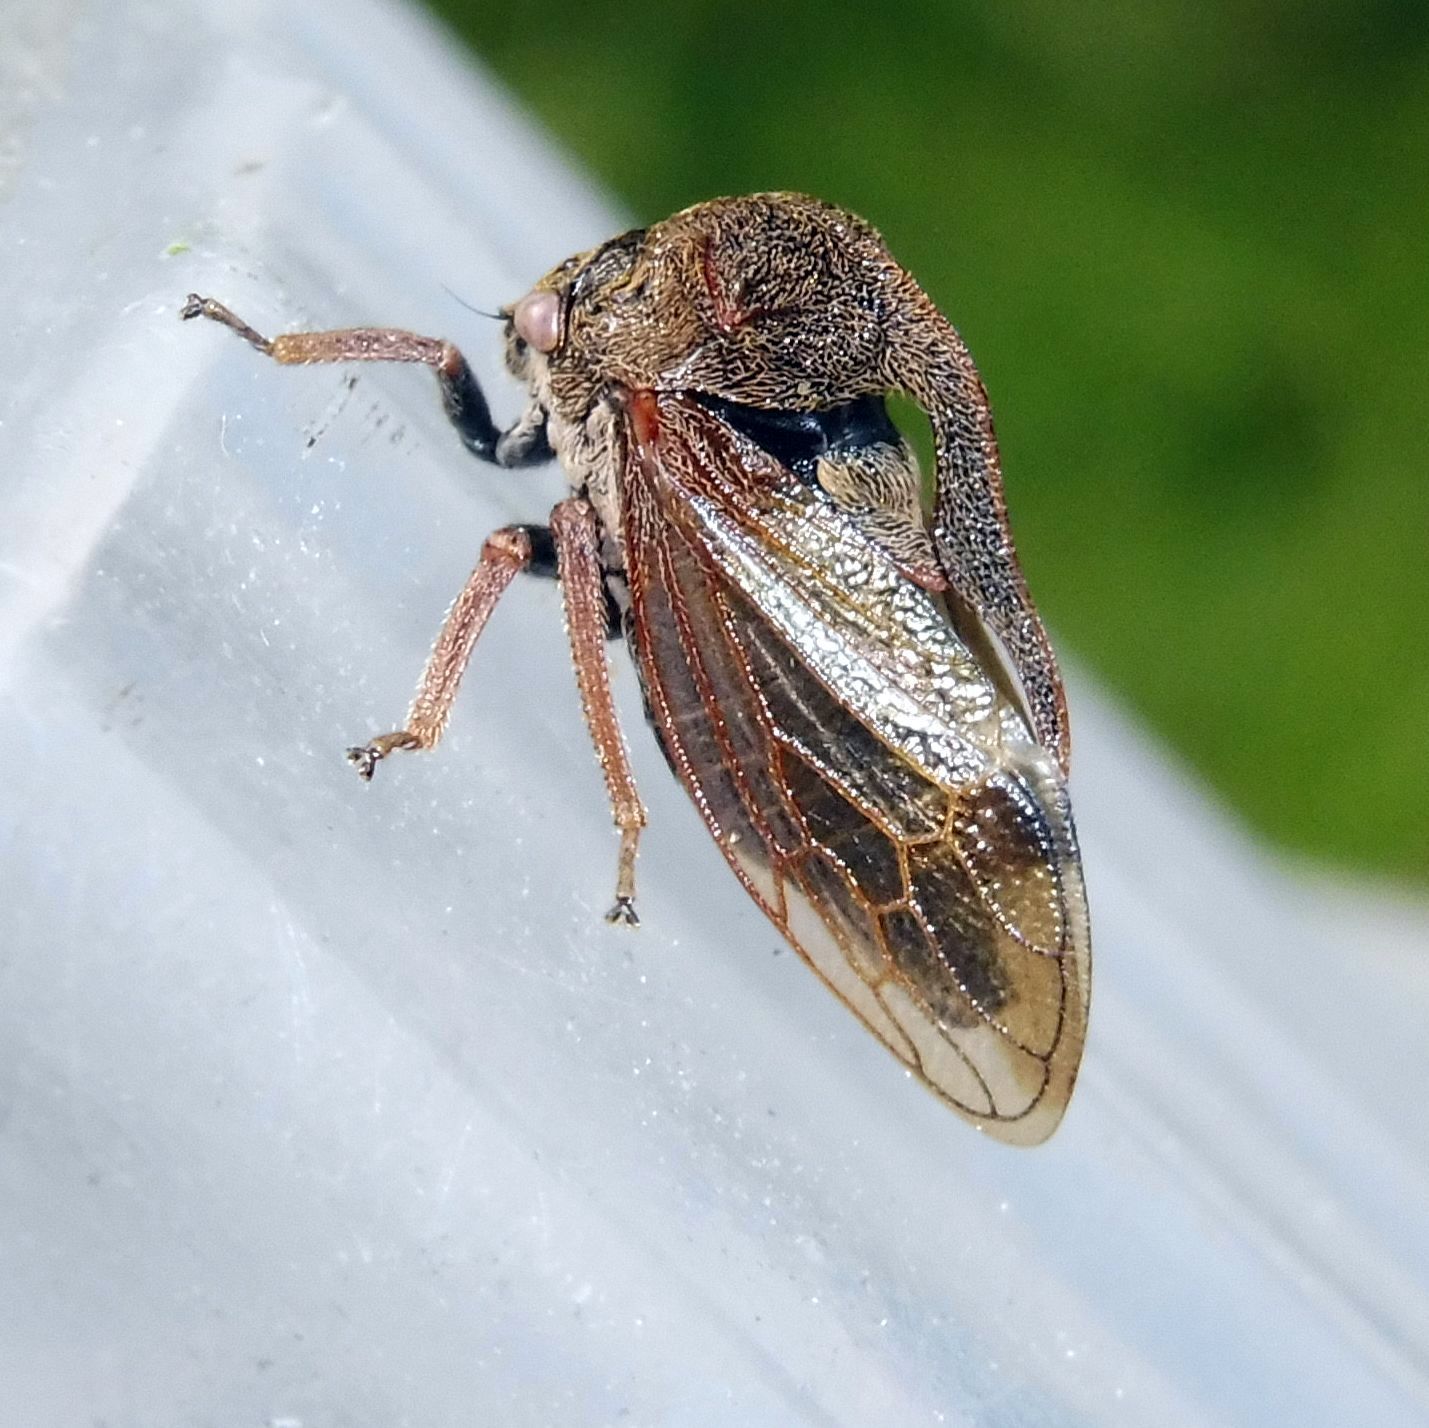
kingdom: Animalia
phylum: Arthropoda
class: Insecta
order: Hemiptera
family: Membracidae
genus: Centrotus
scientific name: Centrotus cornuta
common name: Treehopper
